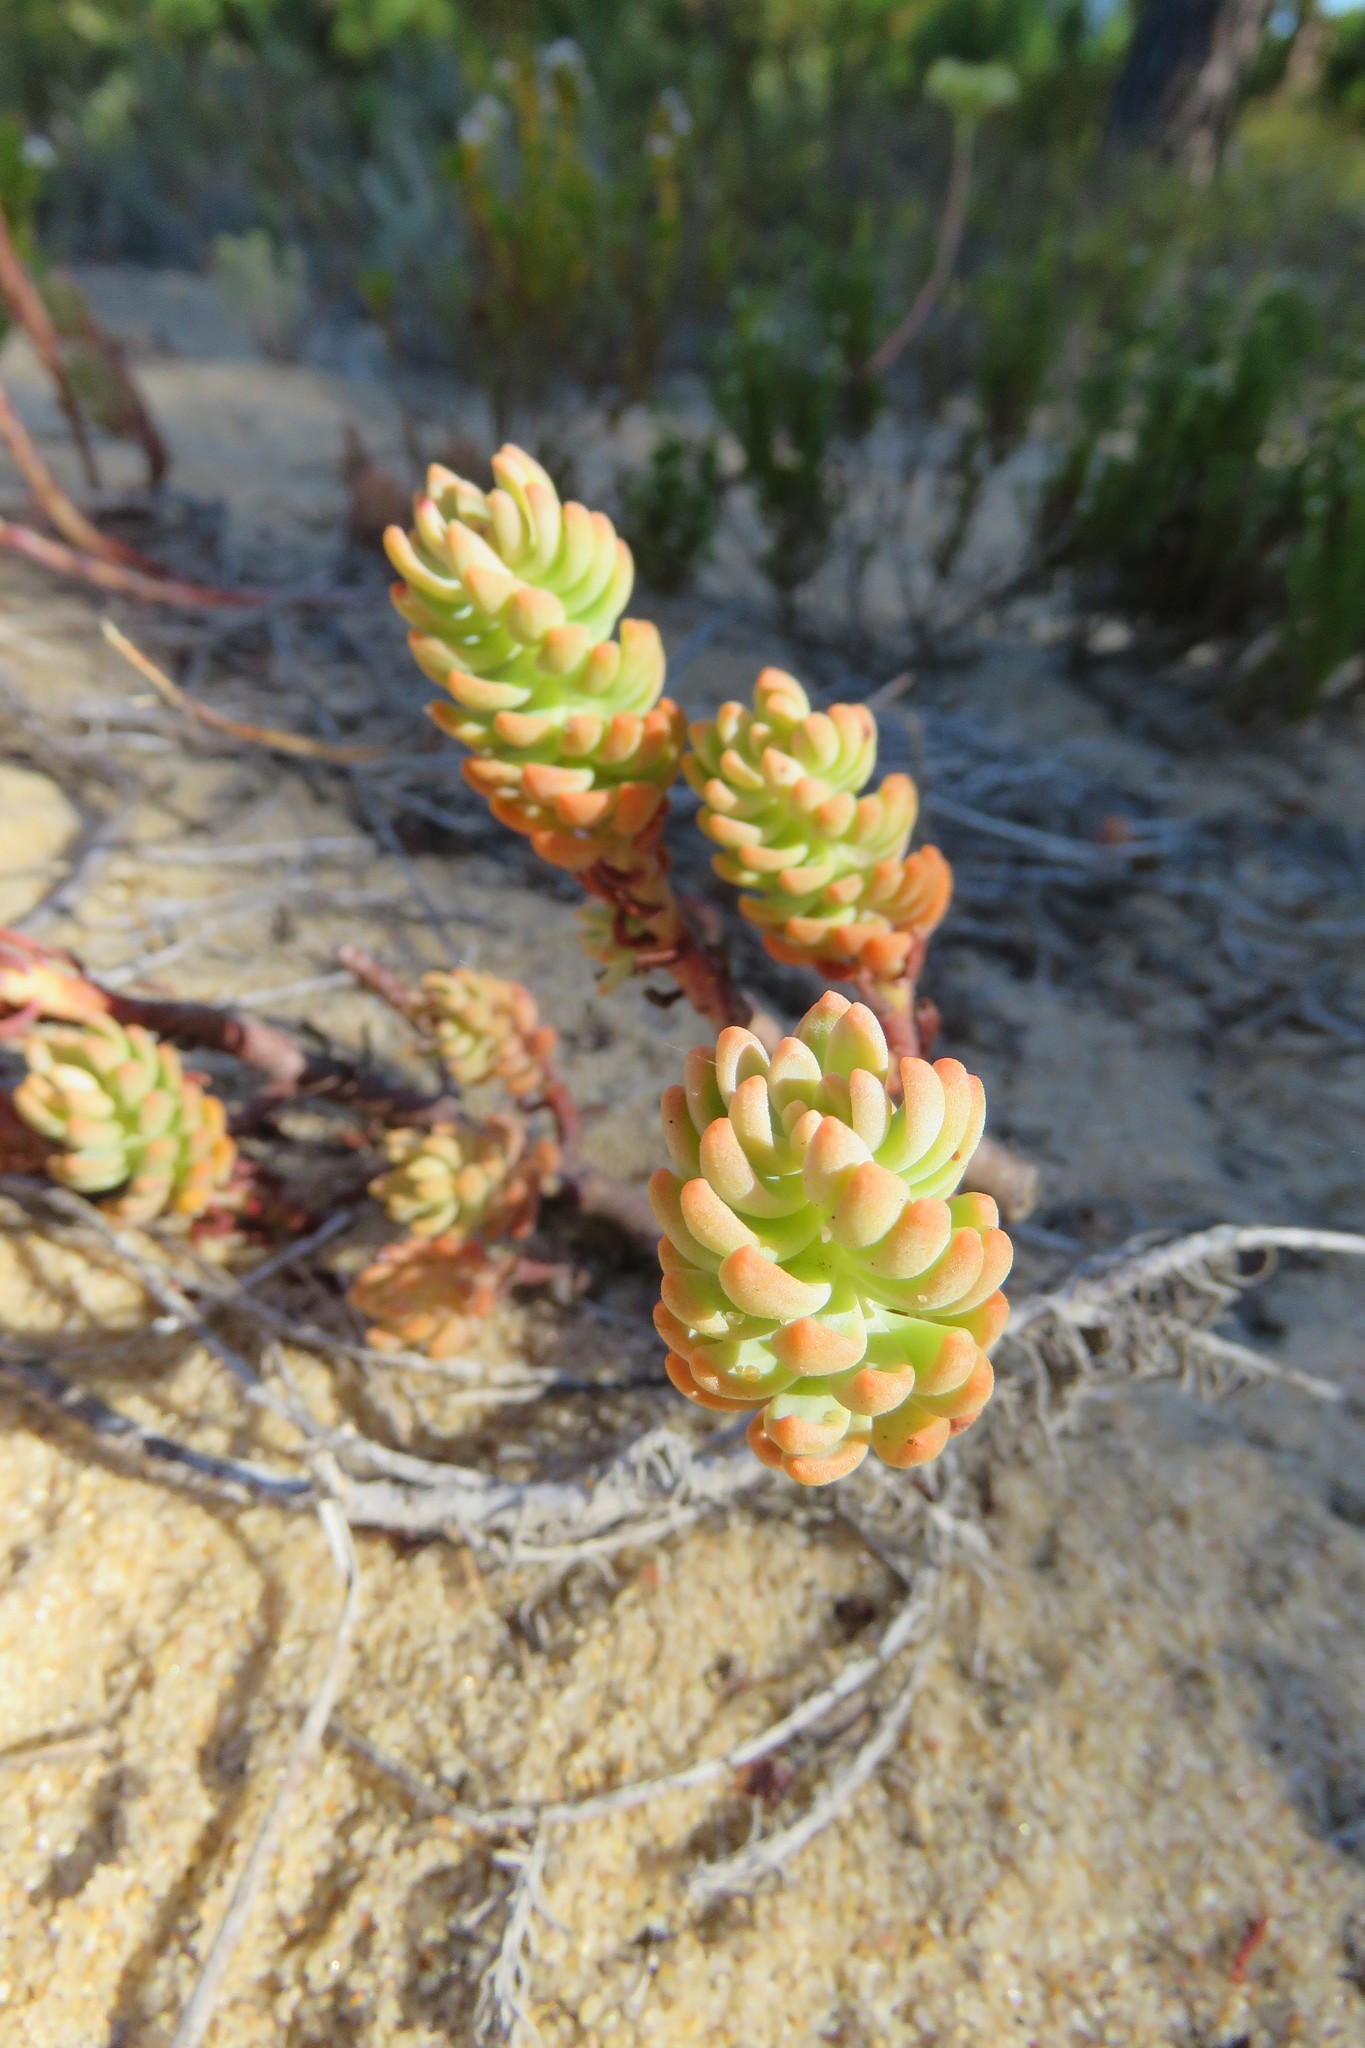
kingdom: Plantae
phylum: Tracheophyta
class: Magnoliopsida
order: Saxifragales
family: Crassulaceae
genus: Petrosedum
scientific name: Petrosedum sediforme
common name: Pale stonecrop
